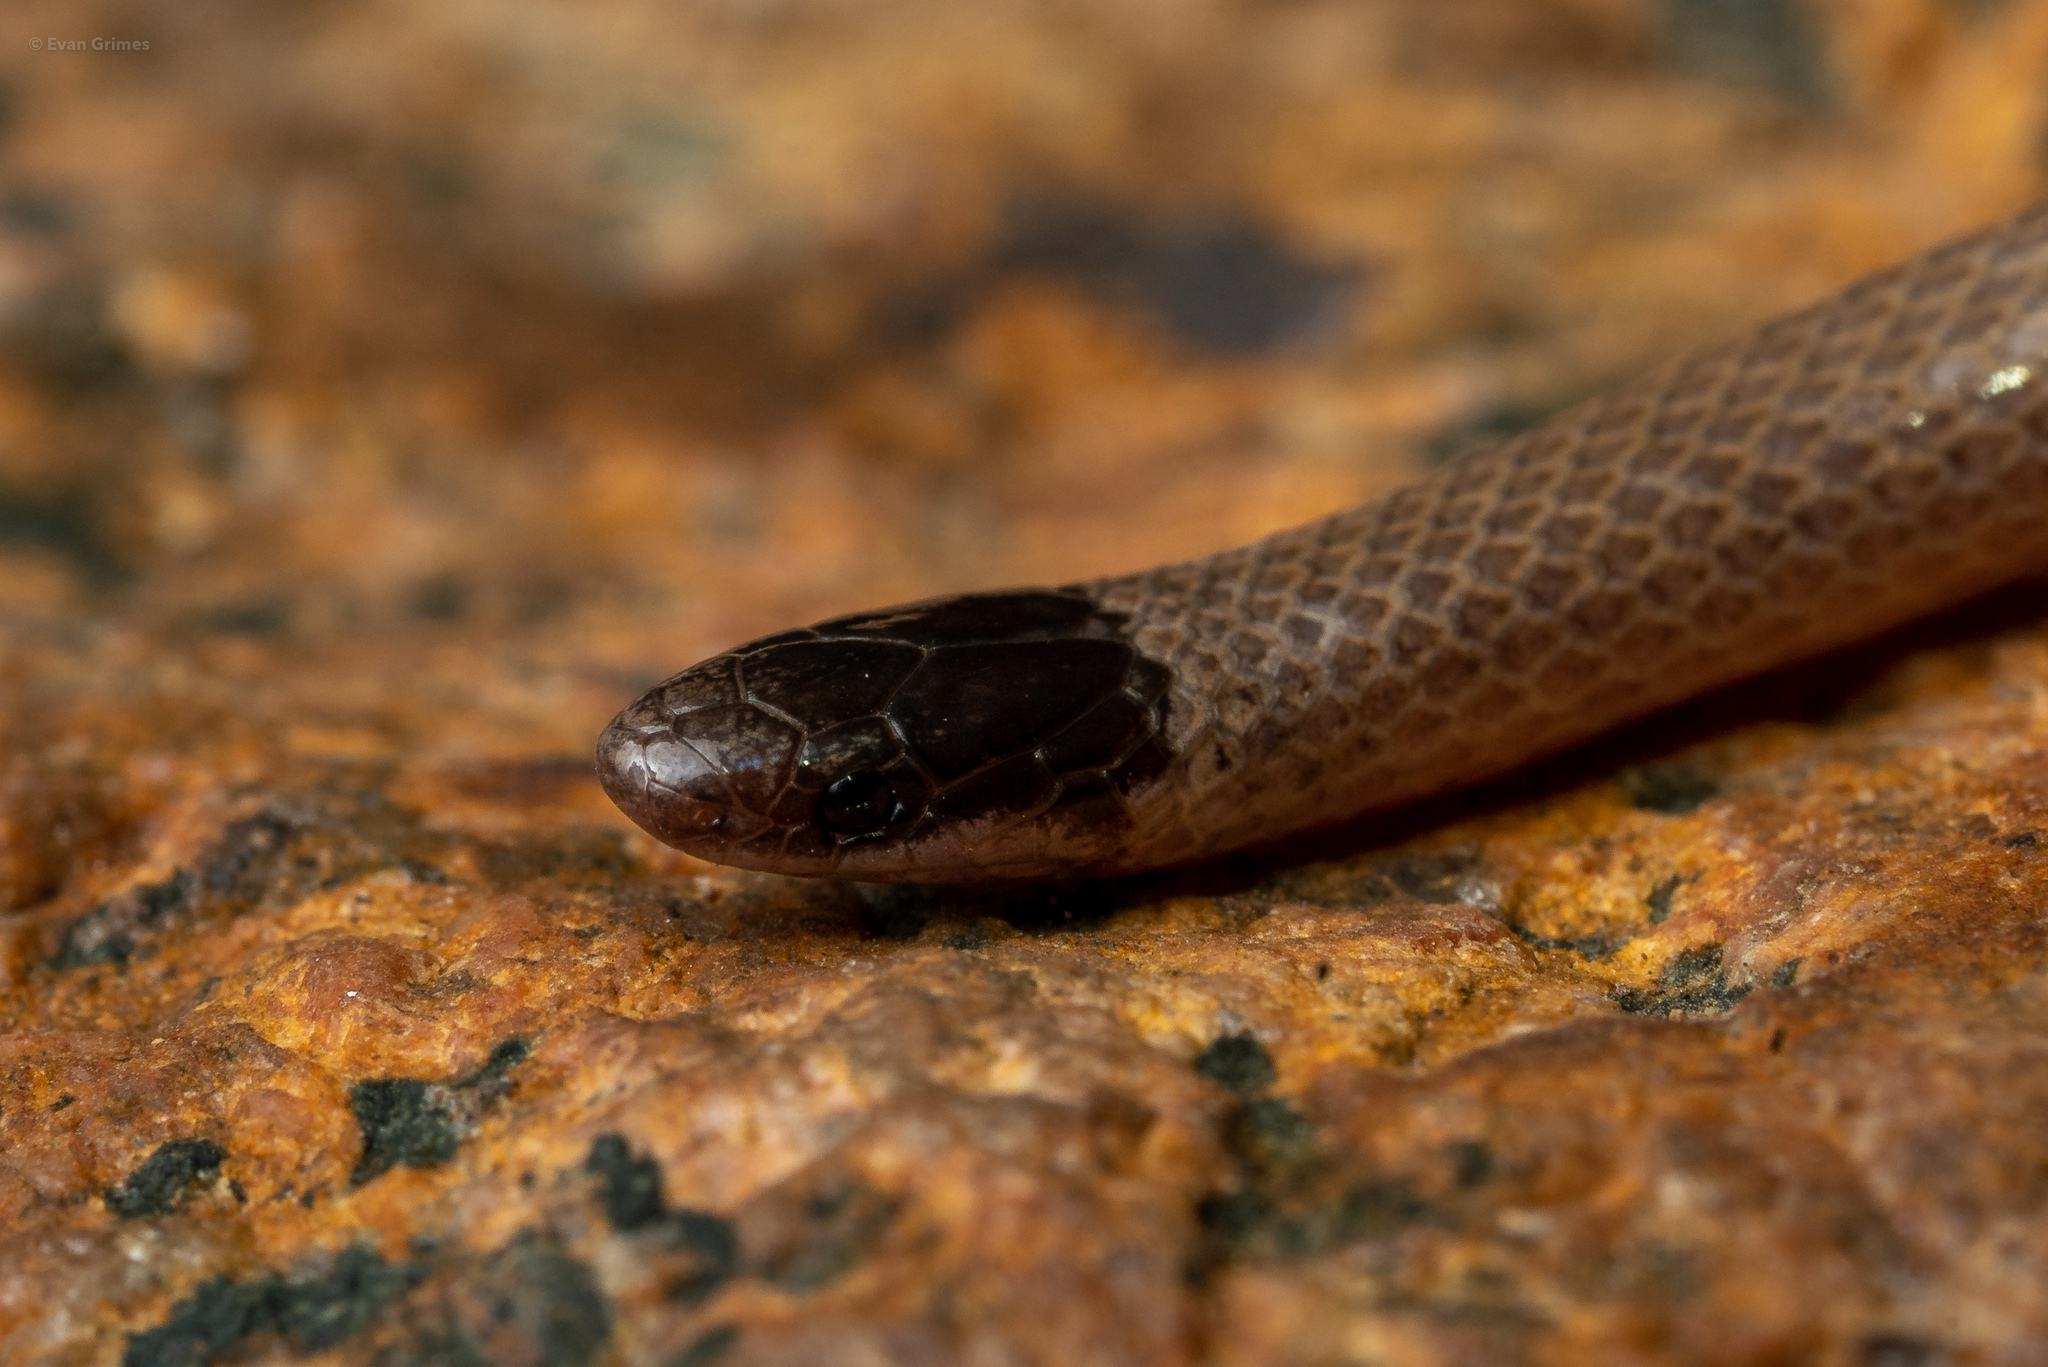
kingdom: Animalia
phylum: Chordata
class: Squamata
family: Colubridae
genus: Tantilla
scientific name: Tantilla hobartsmithi
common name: Southwestern blackhead snake
